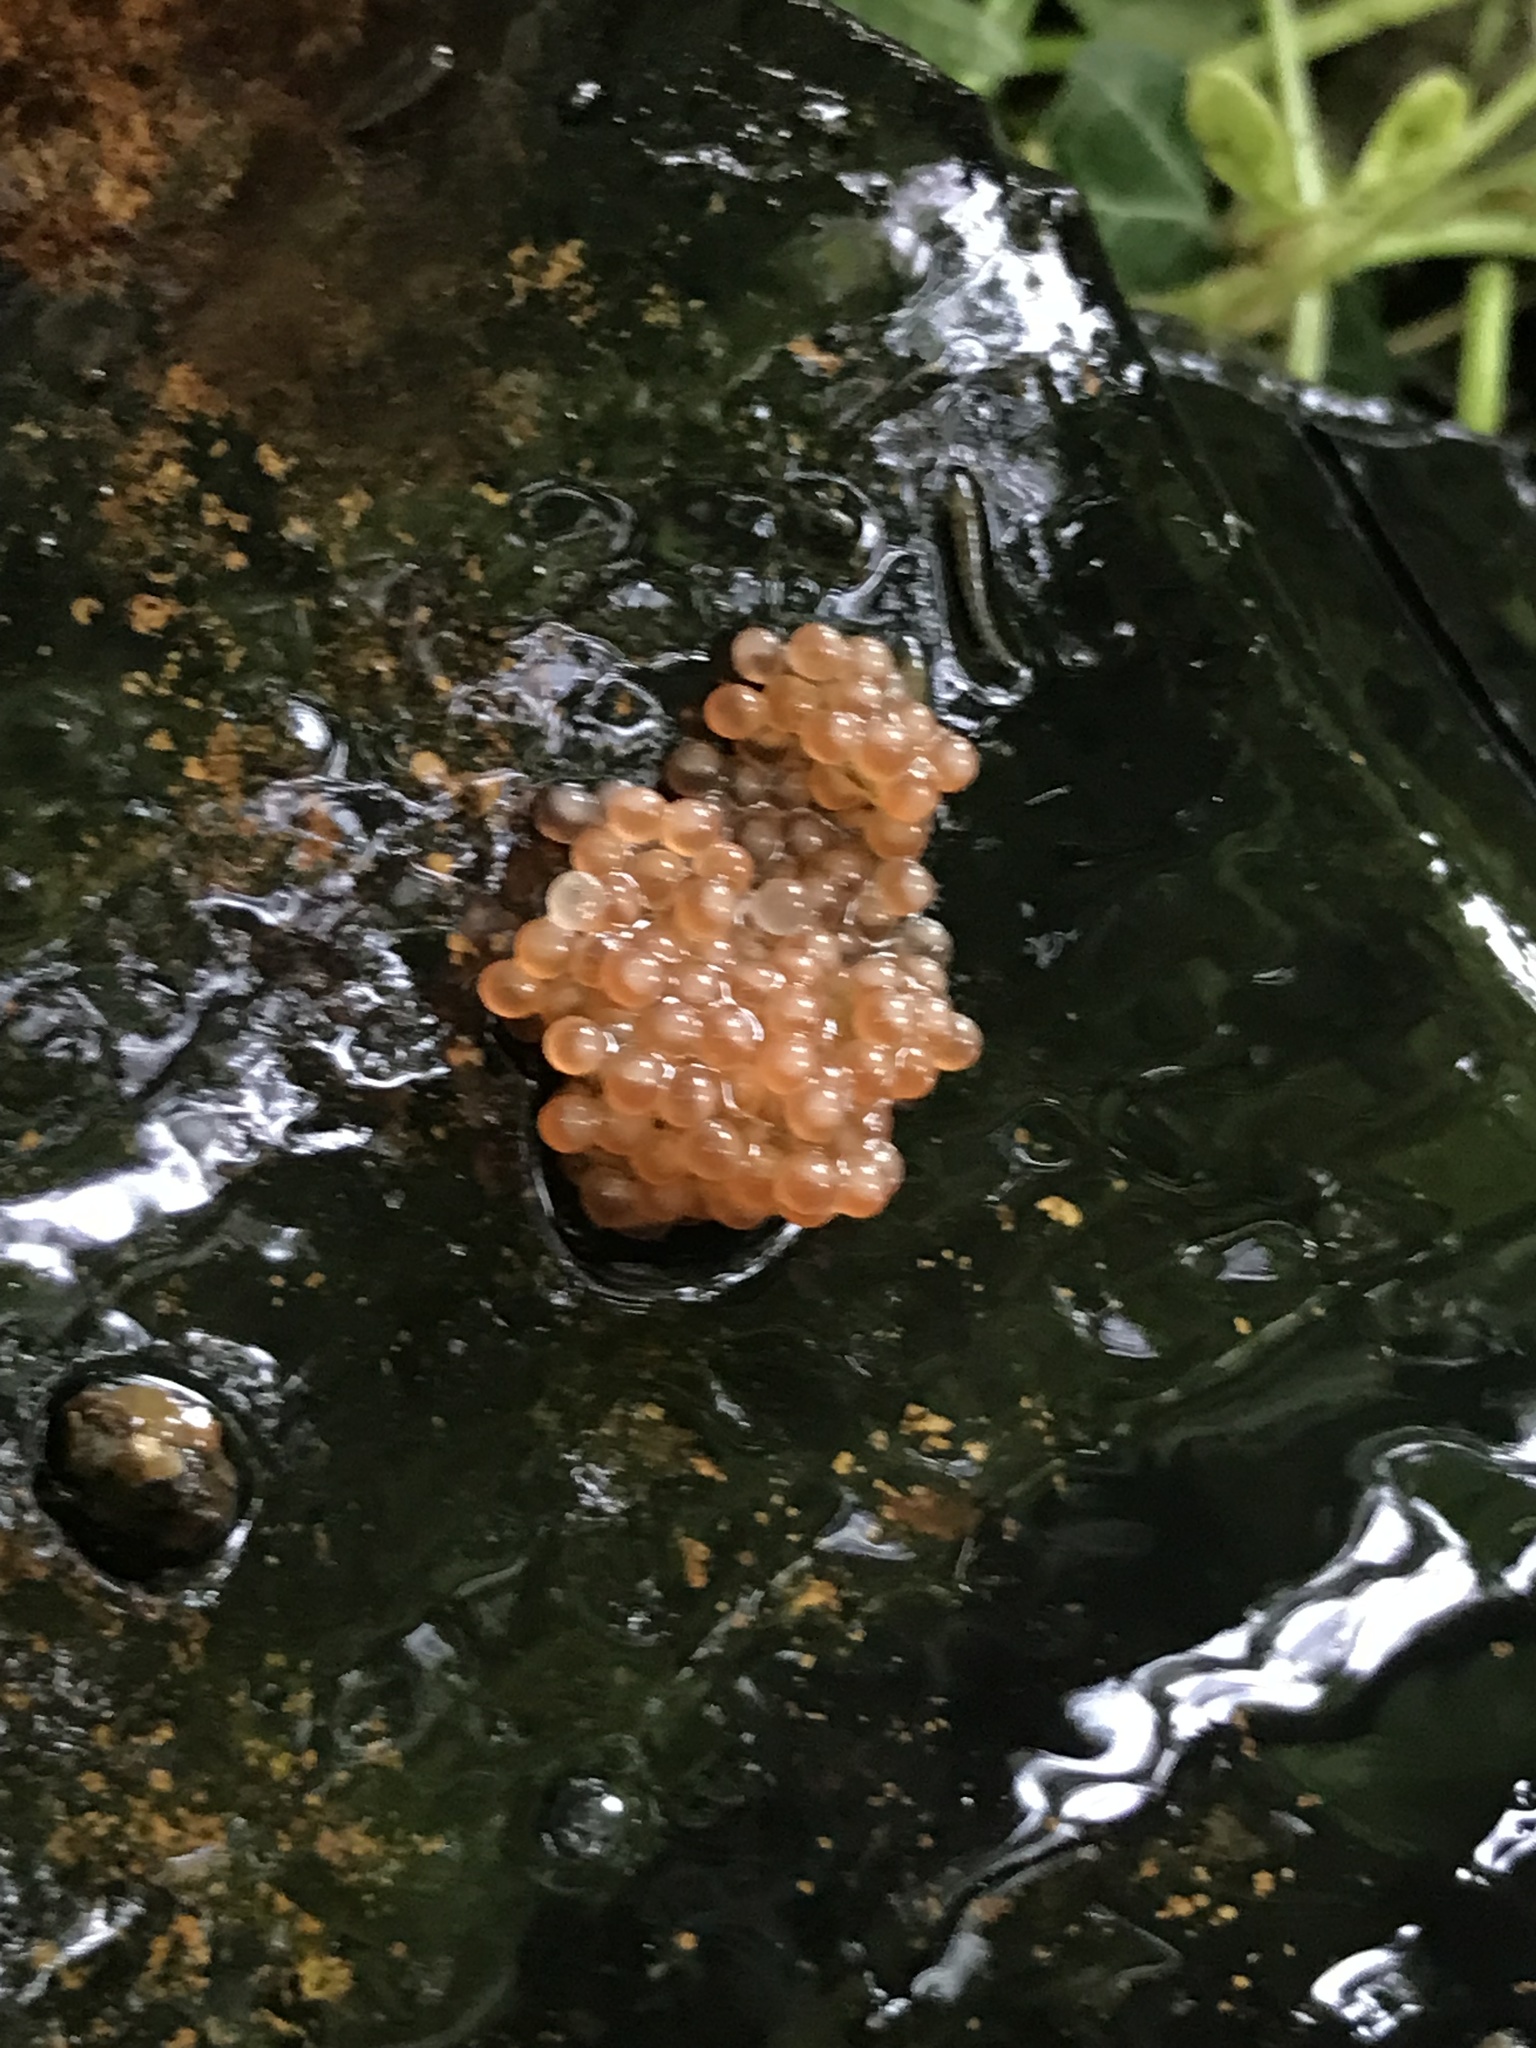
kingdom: Animalia
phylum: Chordata
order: Scorpaeniformes
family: Cottidae
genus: Cottus
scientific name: Cottus perifretum
